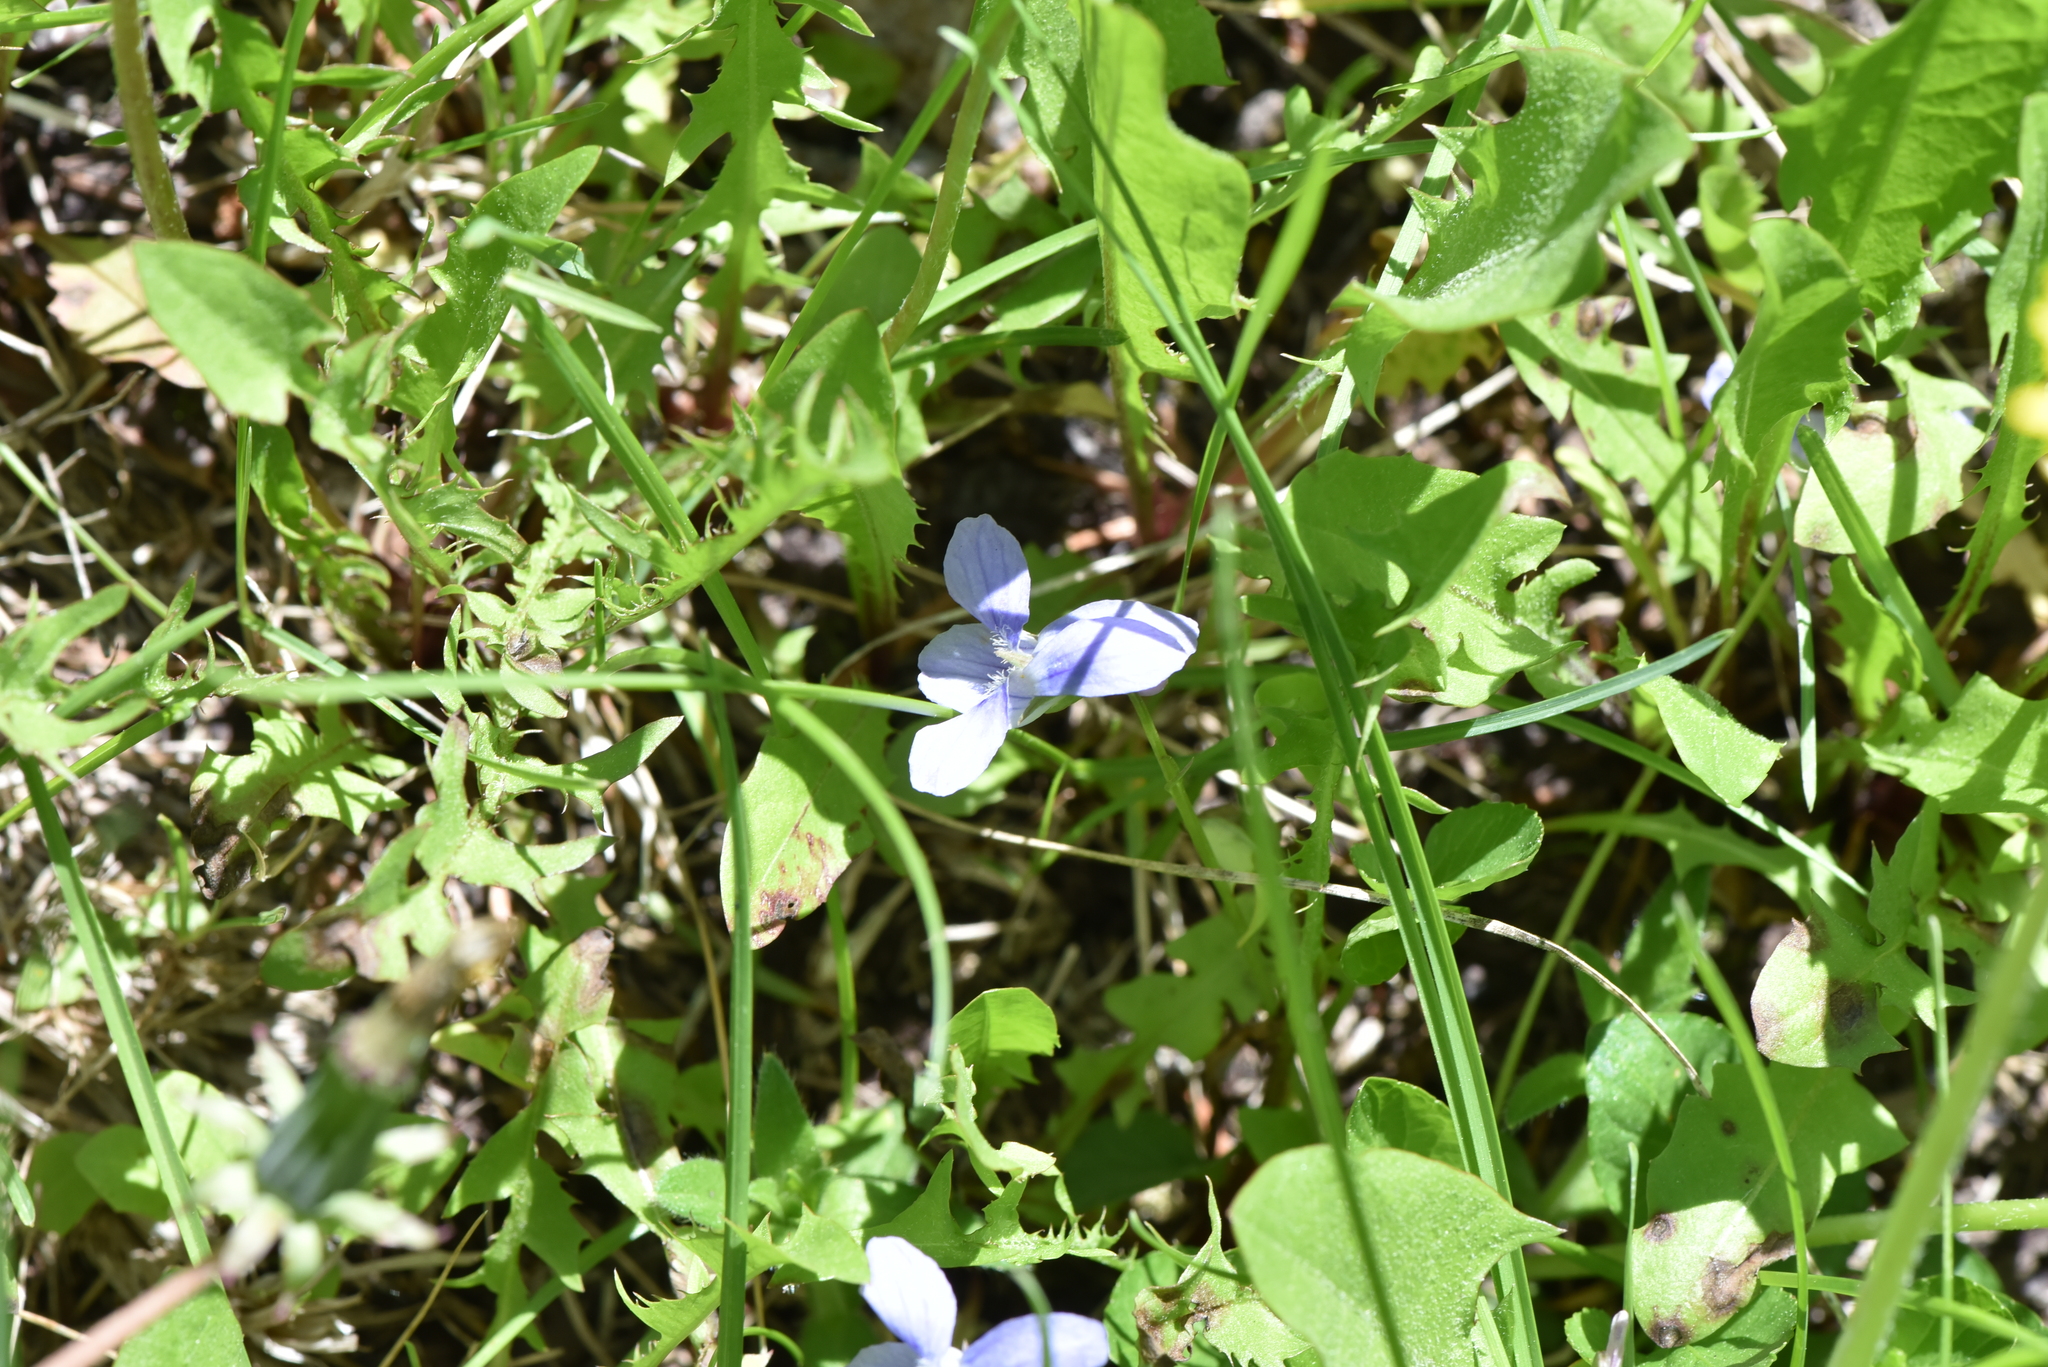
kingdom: Plantae
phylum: Tracheophyta
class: Magnoliopsida
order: Malpighiales
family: Violaceae
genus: Viola
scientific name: Viola adunca
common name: Sand violet
